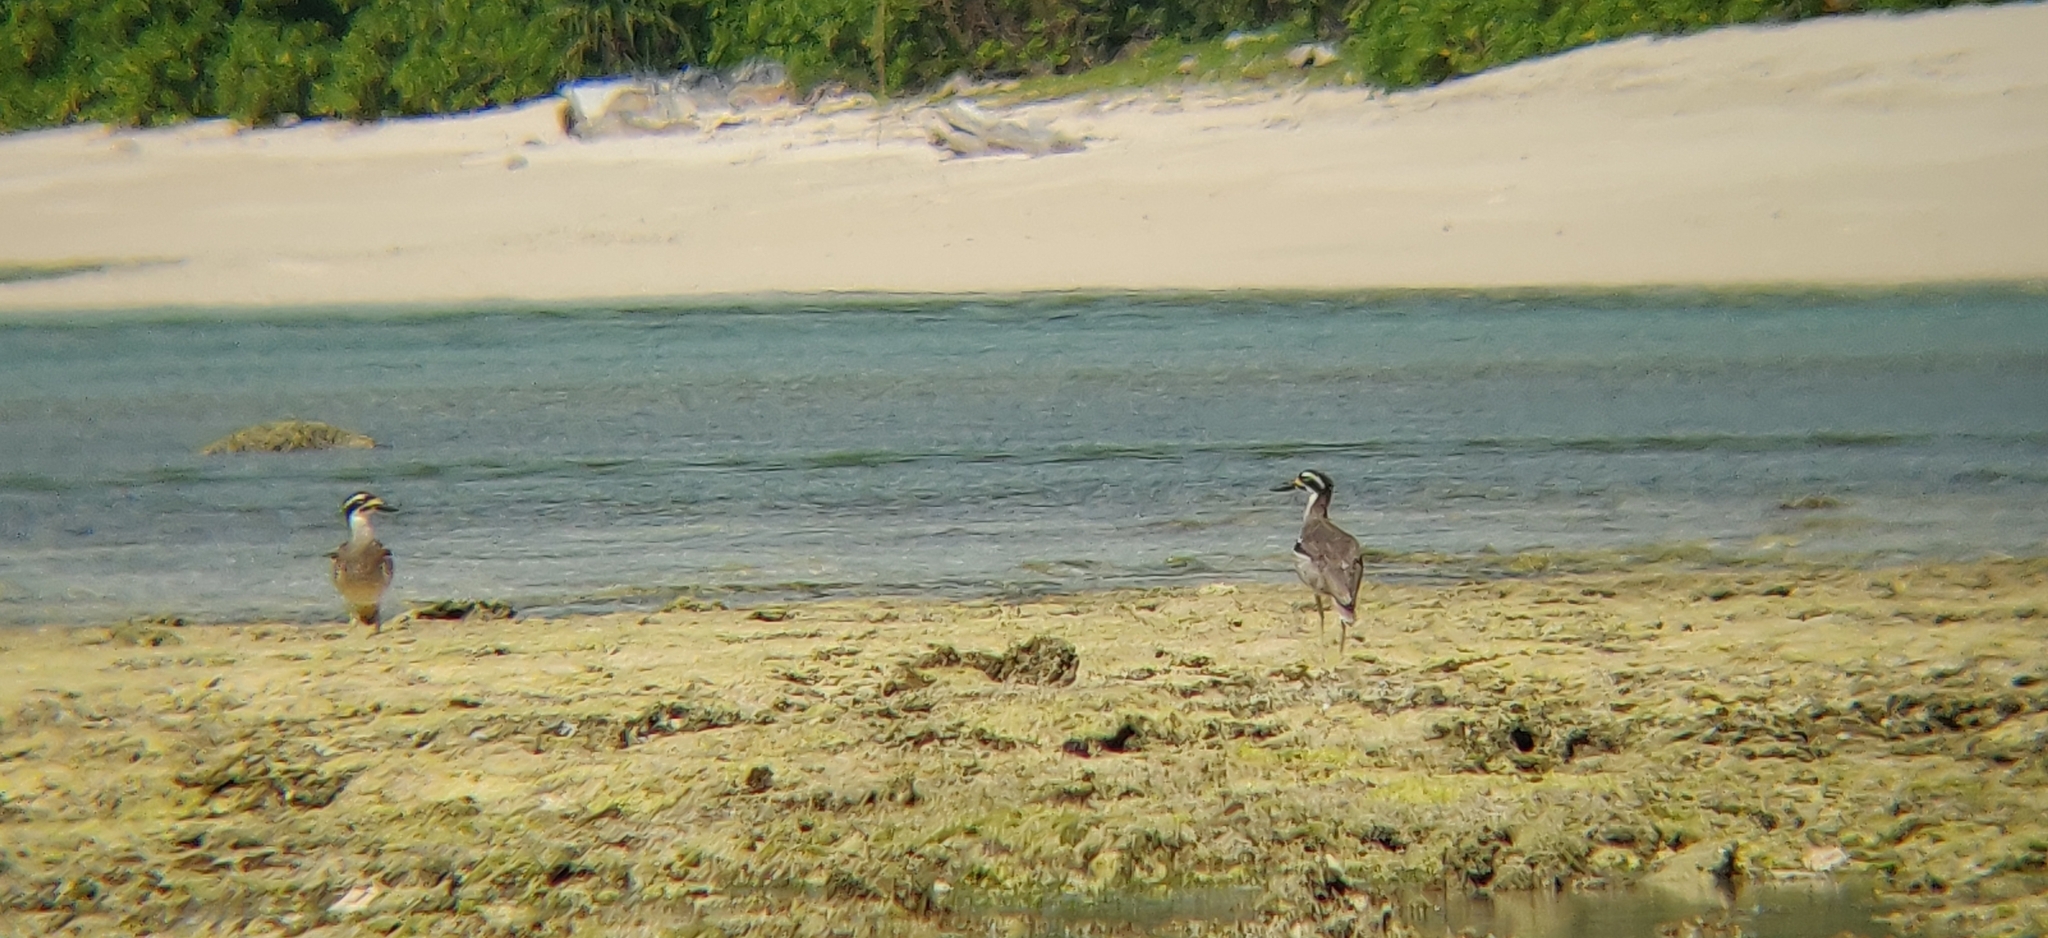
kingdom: Animalia
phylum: Chordata
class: Aves
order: Charadriiformes
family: Burhinidae
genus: Esacus
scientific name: Esacus magnirostris
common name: Beach stone-curlew
